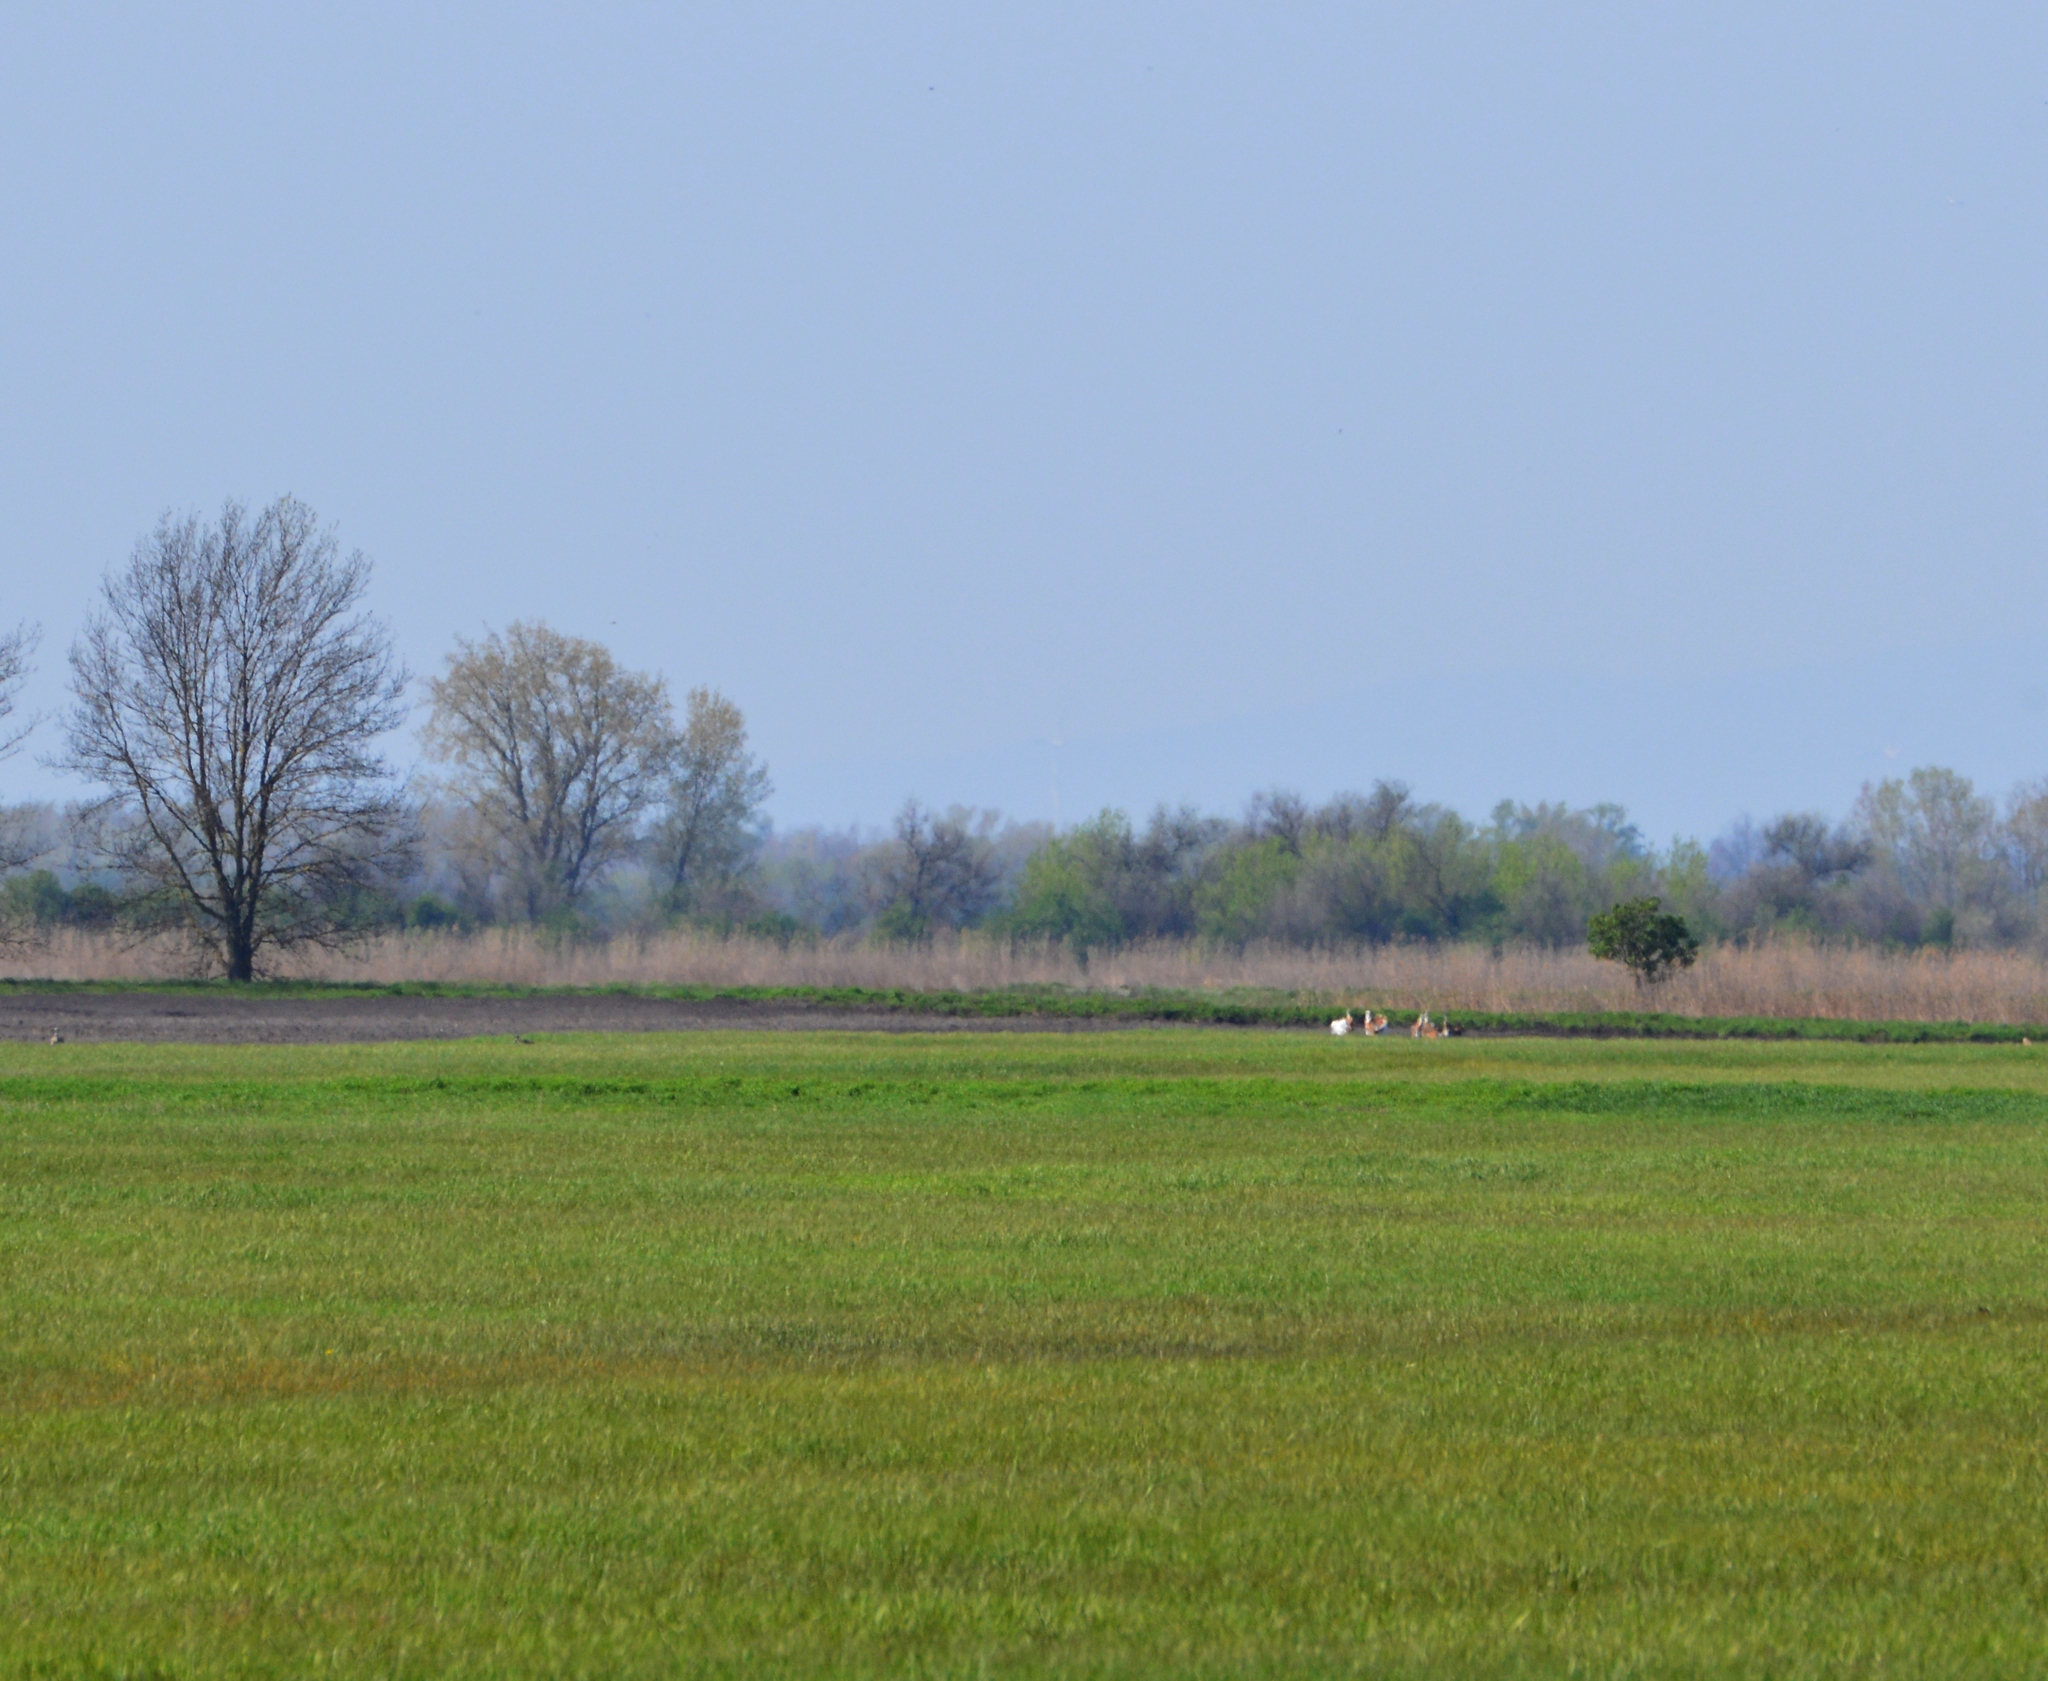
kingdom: Animalia
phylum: Chordata
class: Aves
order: Otidiformes
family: Otididae
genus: Otis
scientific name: Otis tarda
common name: Great bustard
